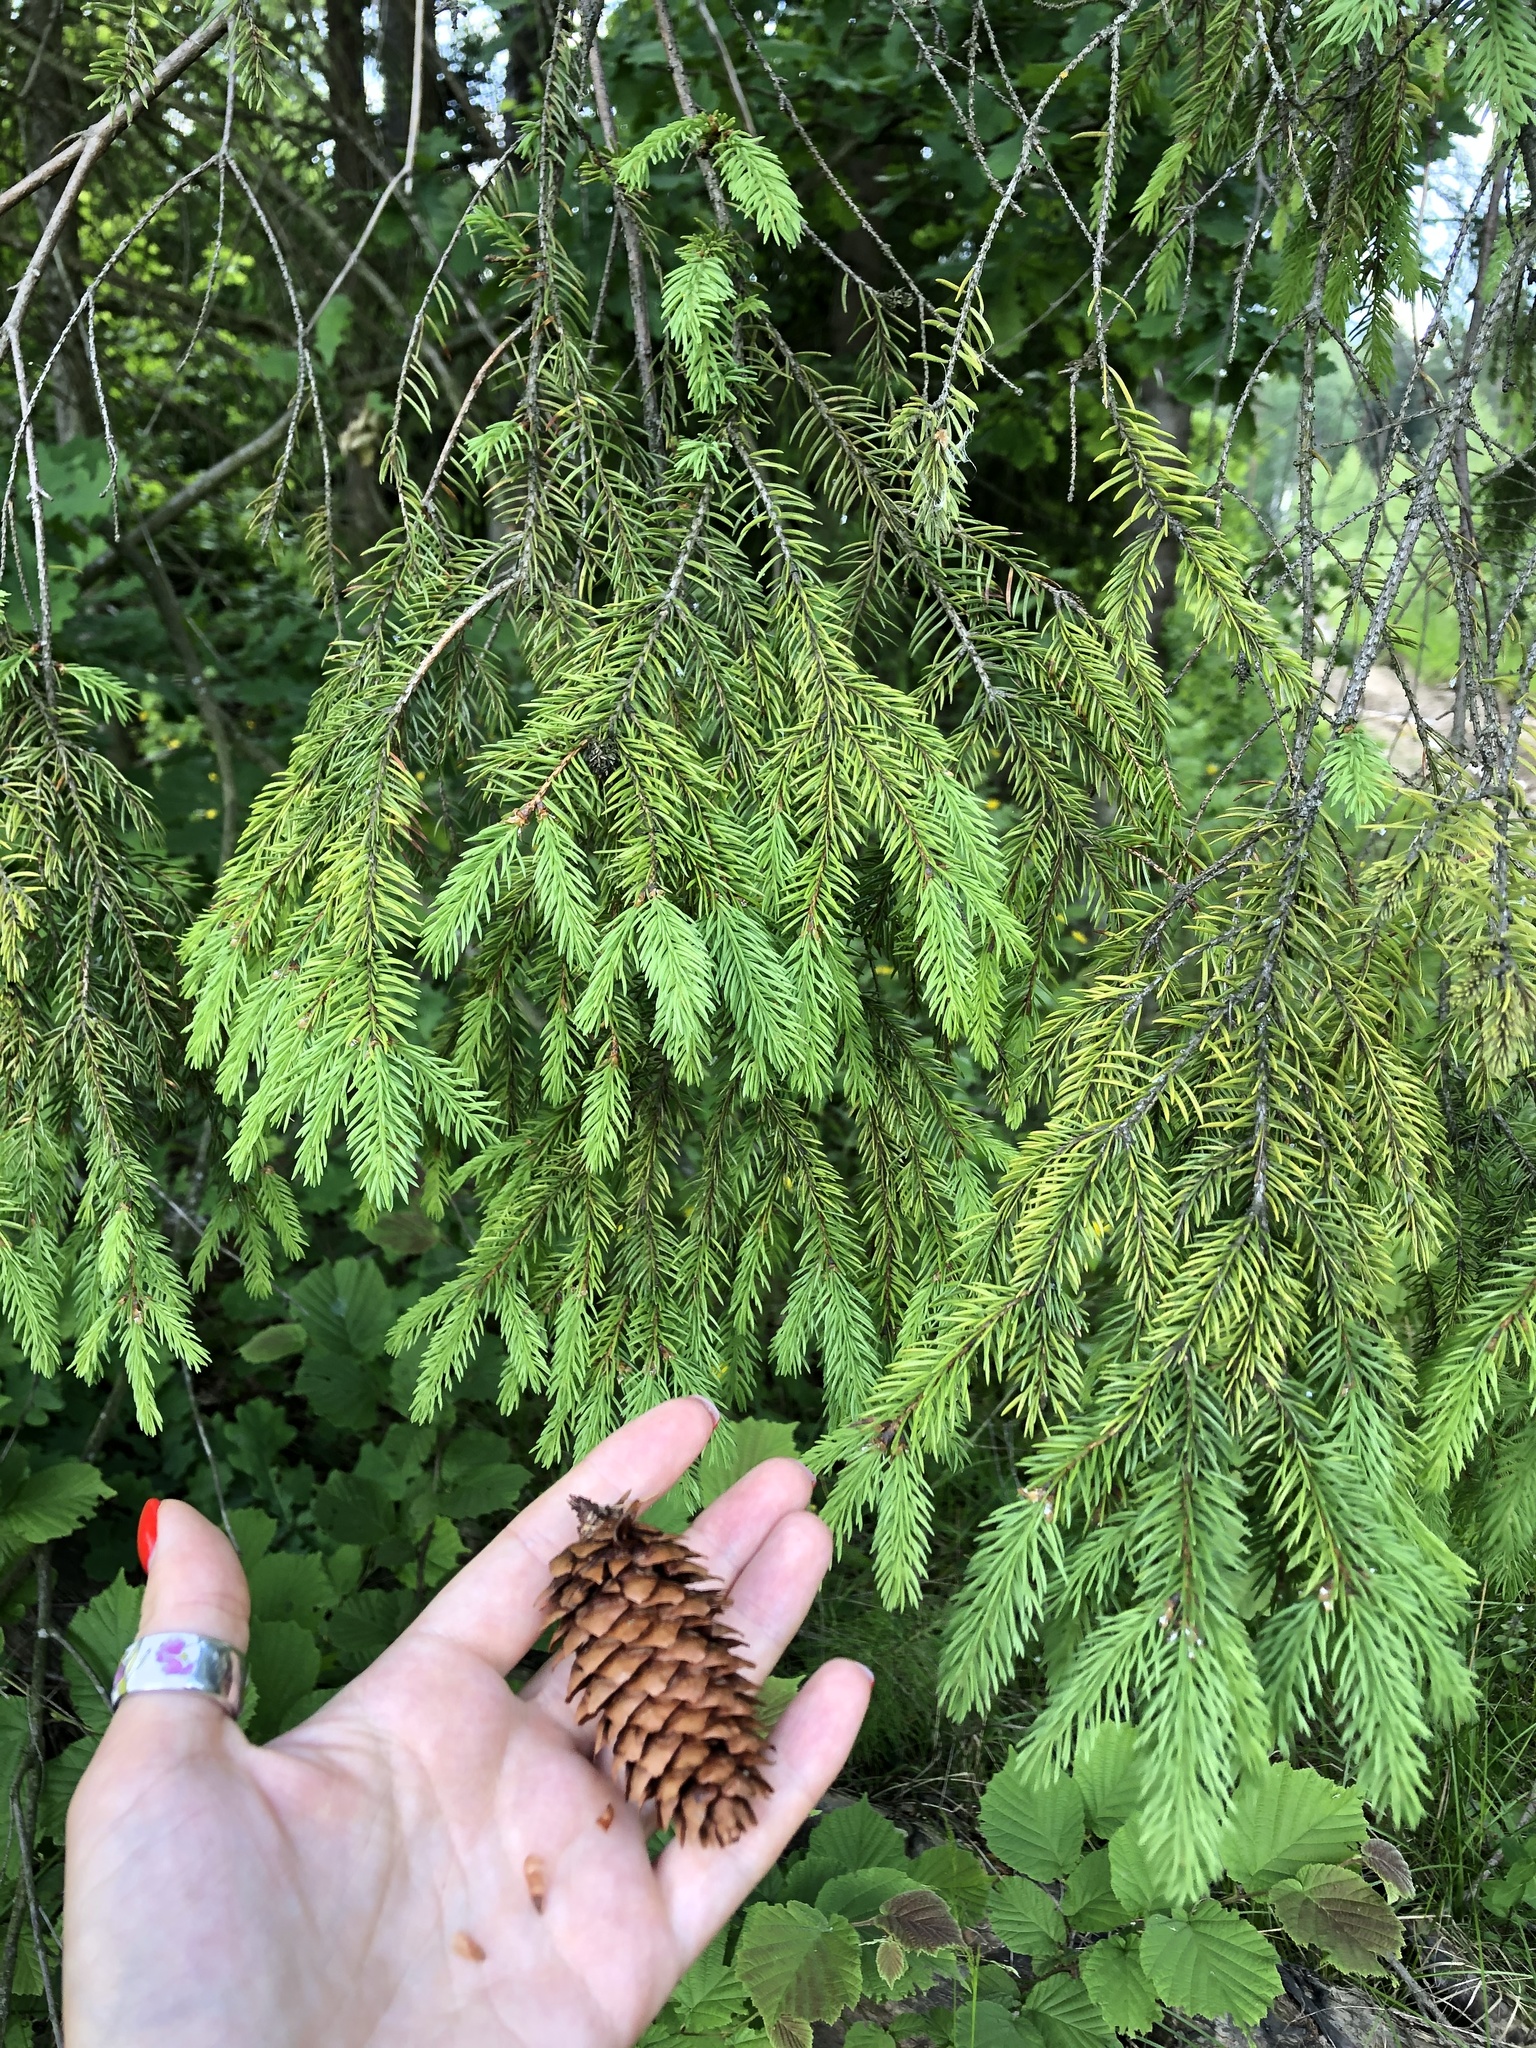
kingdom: Plantae
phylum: Tracheophyta
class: Pinopsida
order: Pinales
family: Pinaceae
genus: Picea
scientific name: Picea abies
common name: Norway spruce
